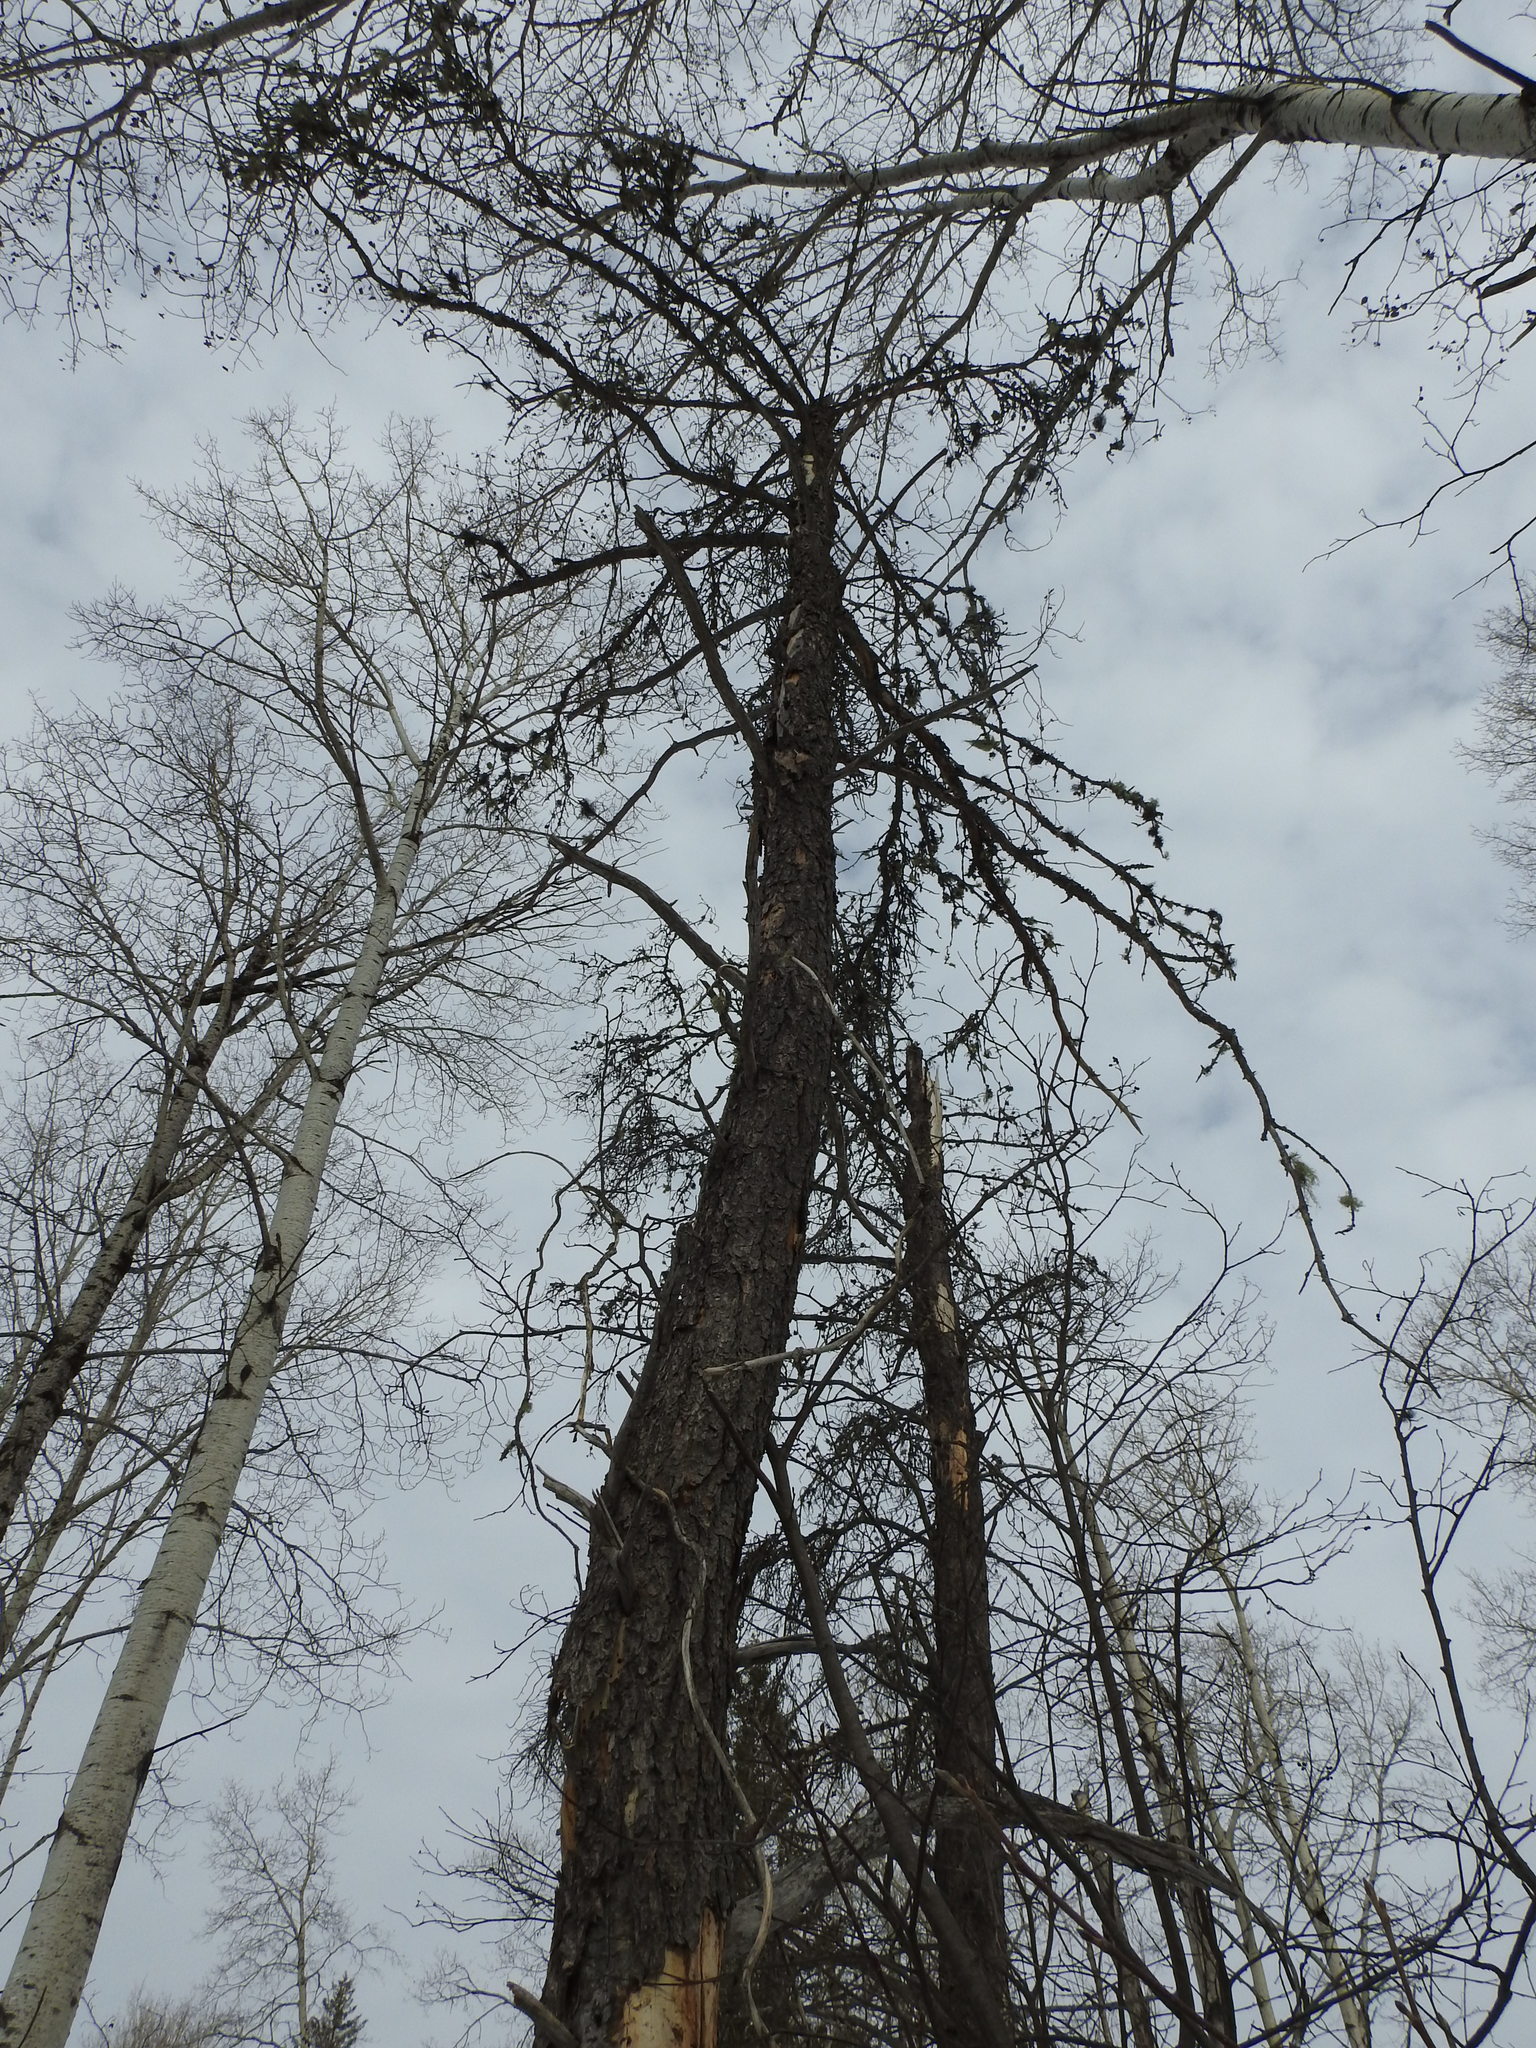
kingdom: Plantae
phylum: Tracheophyta
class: Pinopsida
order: Pinales
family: Pinaceae
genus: Pinus
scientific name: Pinus banksiana
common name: Jack pine
